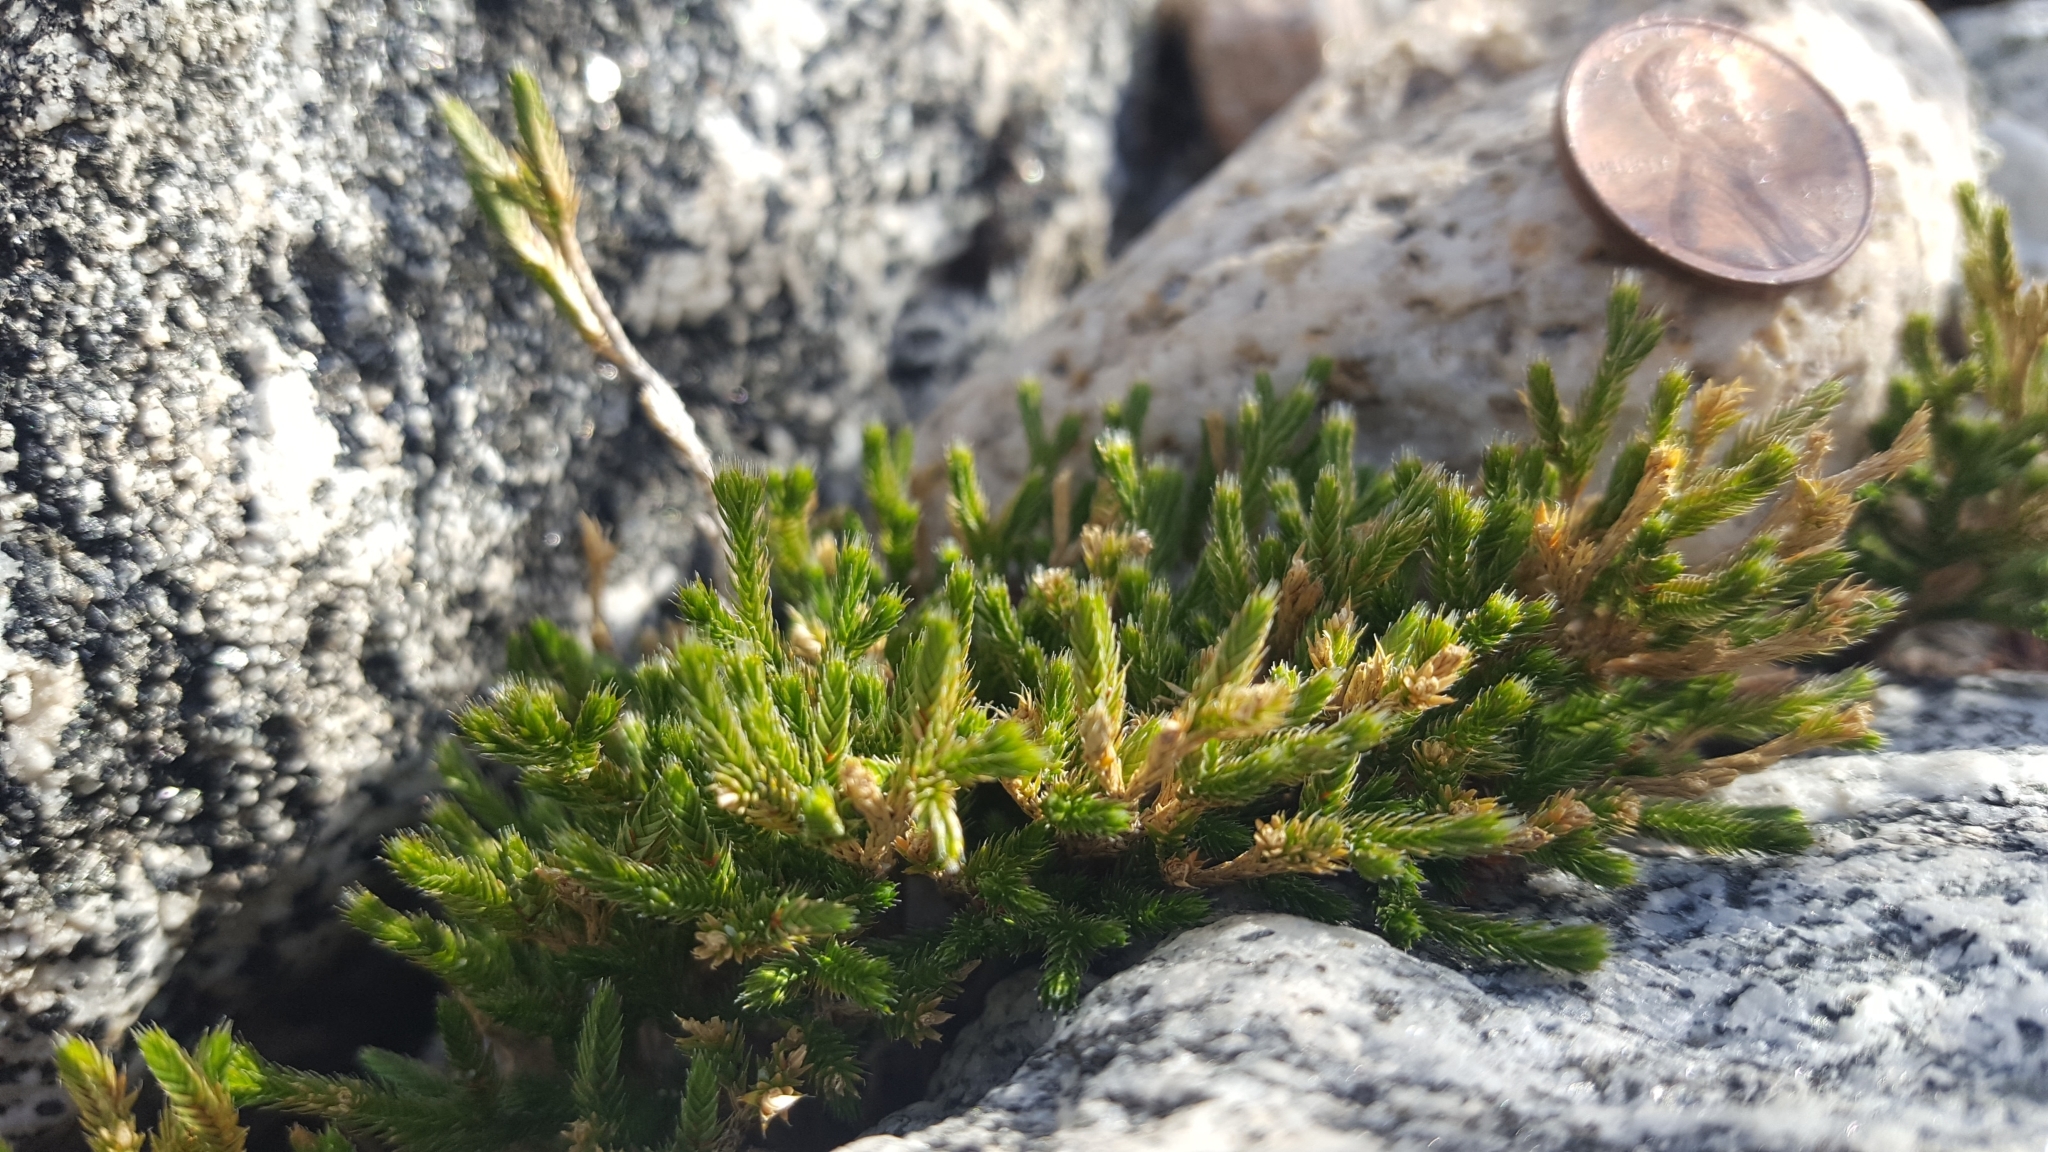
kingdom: Plantae
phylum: Tracheophyta
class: Lycopodiopsida
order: Selaginellales
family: Selaginellaceae
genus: Selaginella
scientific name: Selaginella bigelovii
